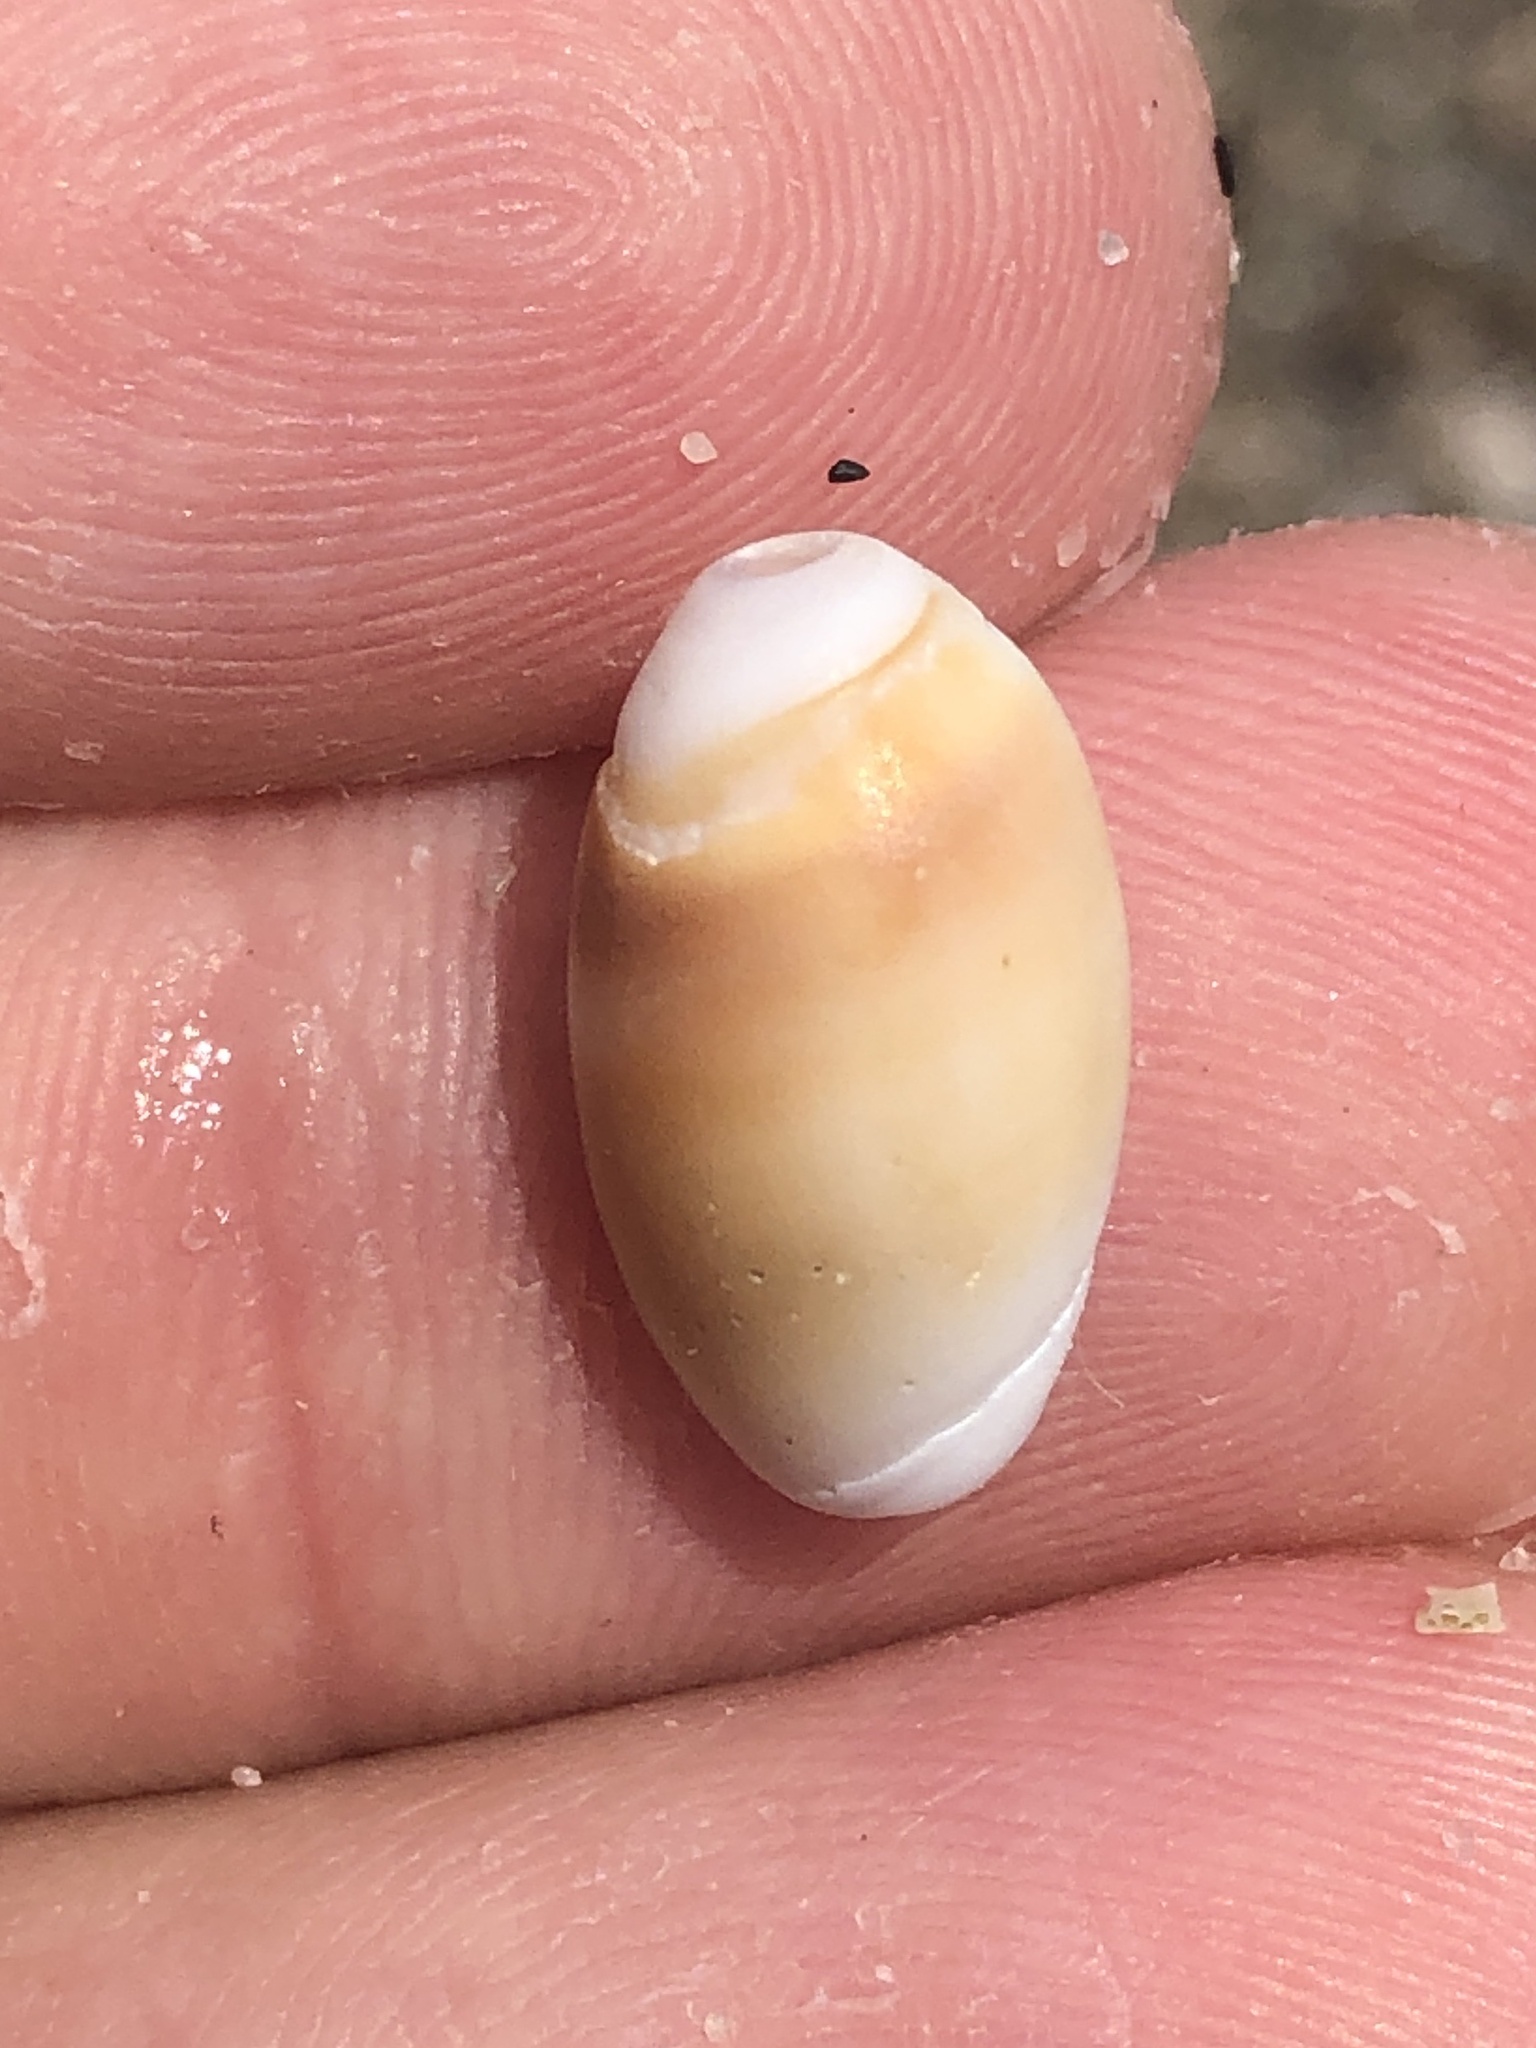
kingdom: Animalia
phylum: Mollusca
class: Gastropoda
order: Neogastropoda
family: Olividae
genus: Callianax
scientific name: Callianax biplicata
